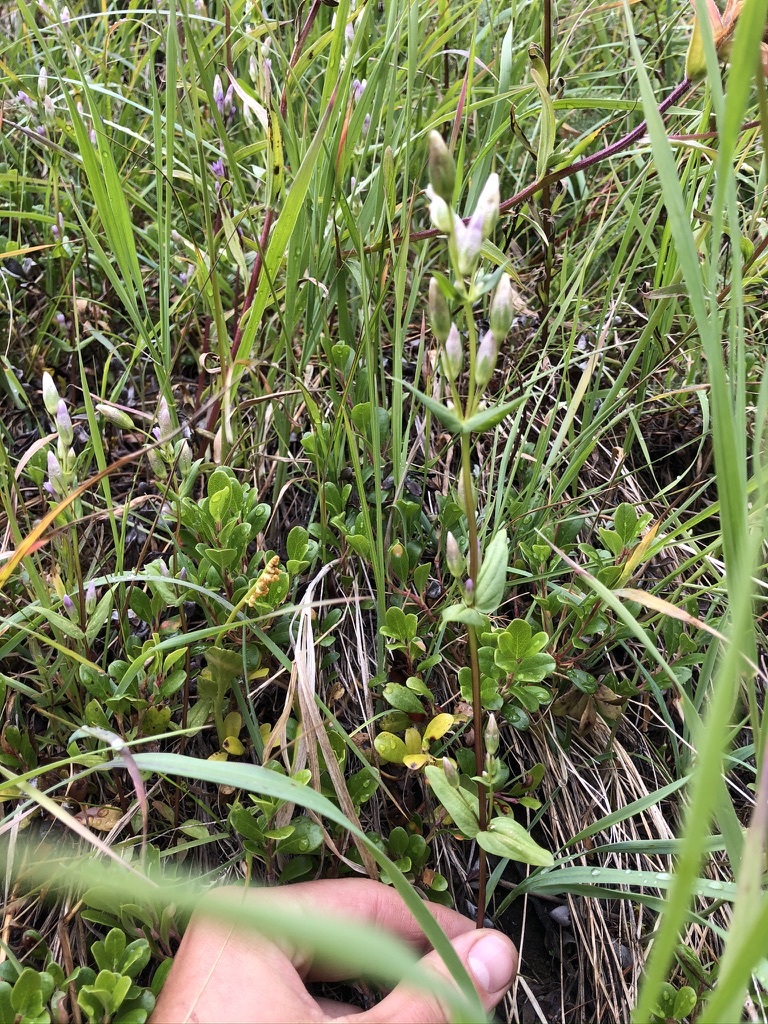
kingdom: Plantae
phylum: Tracheophyta
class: Magnoliopsida
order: Gentianales
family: Gentianaceae
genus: Gentianella
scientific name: Gentianella amarella
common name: Autumn gentian
